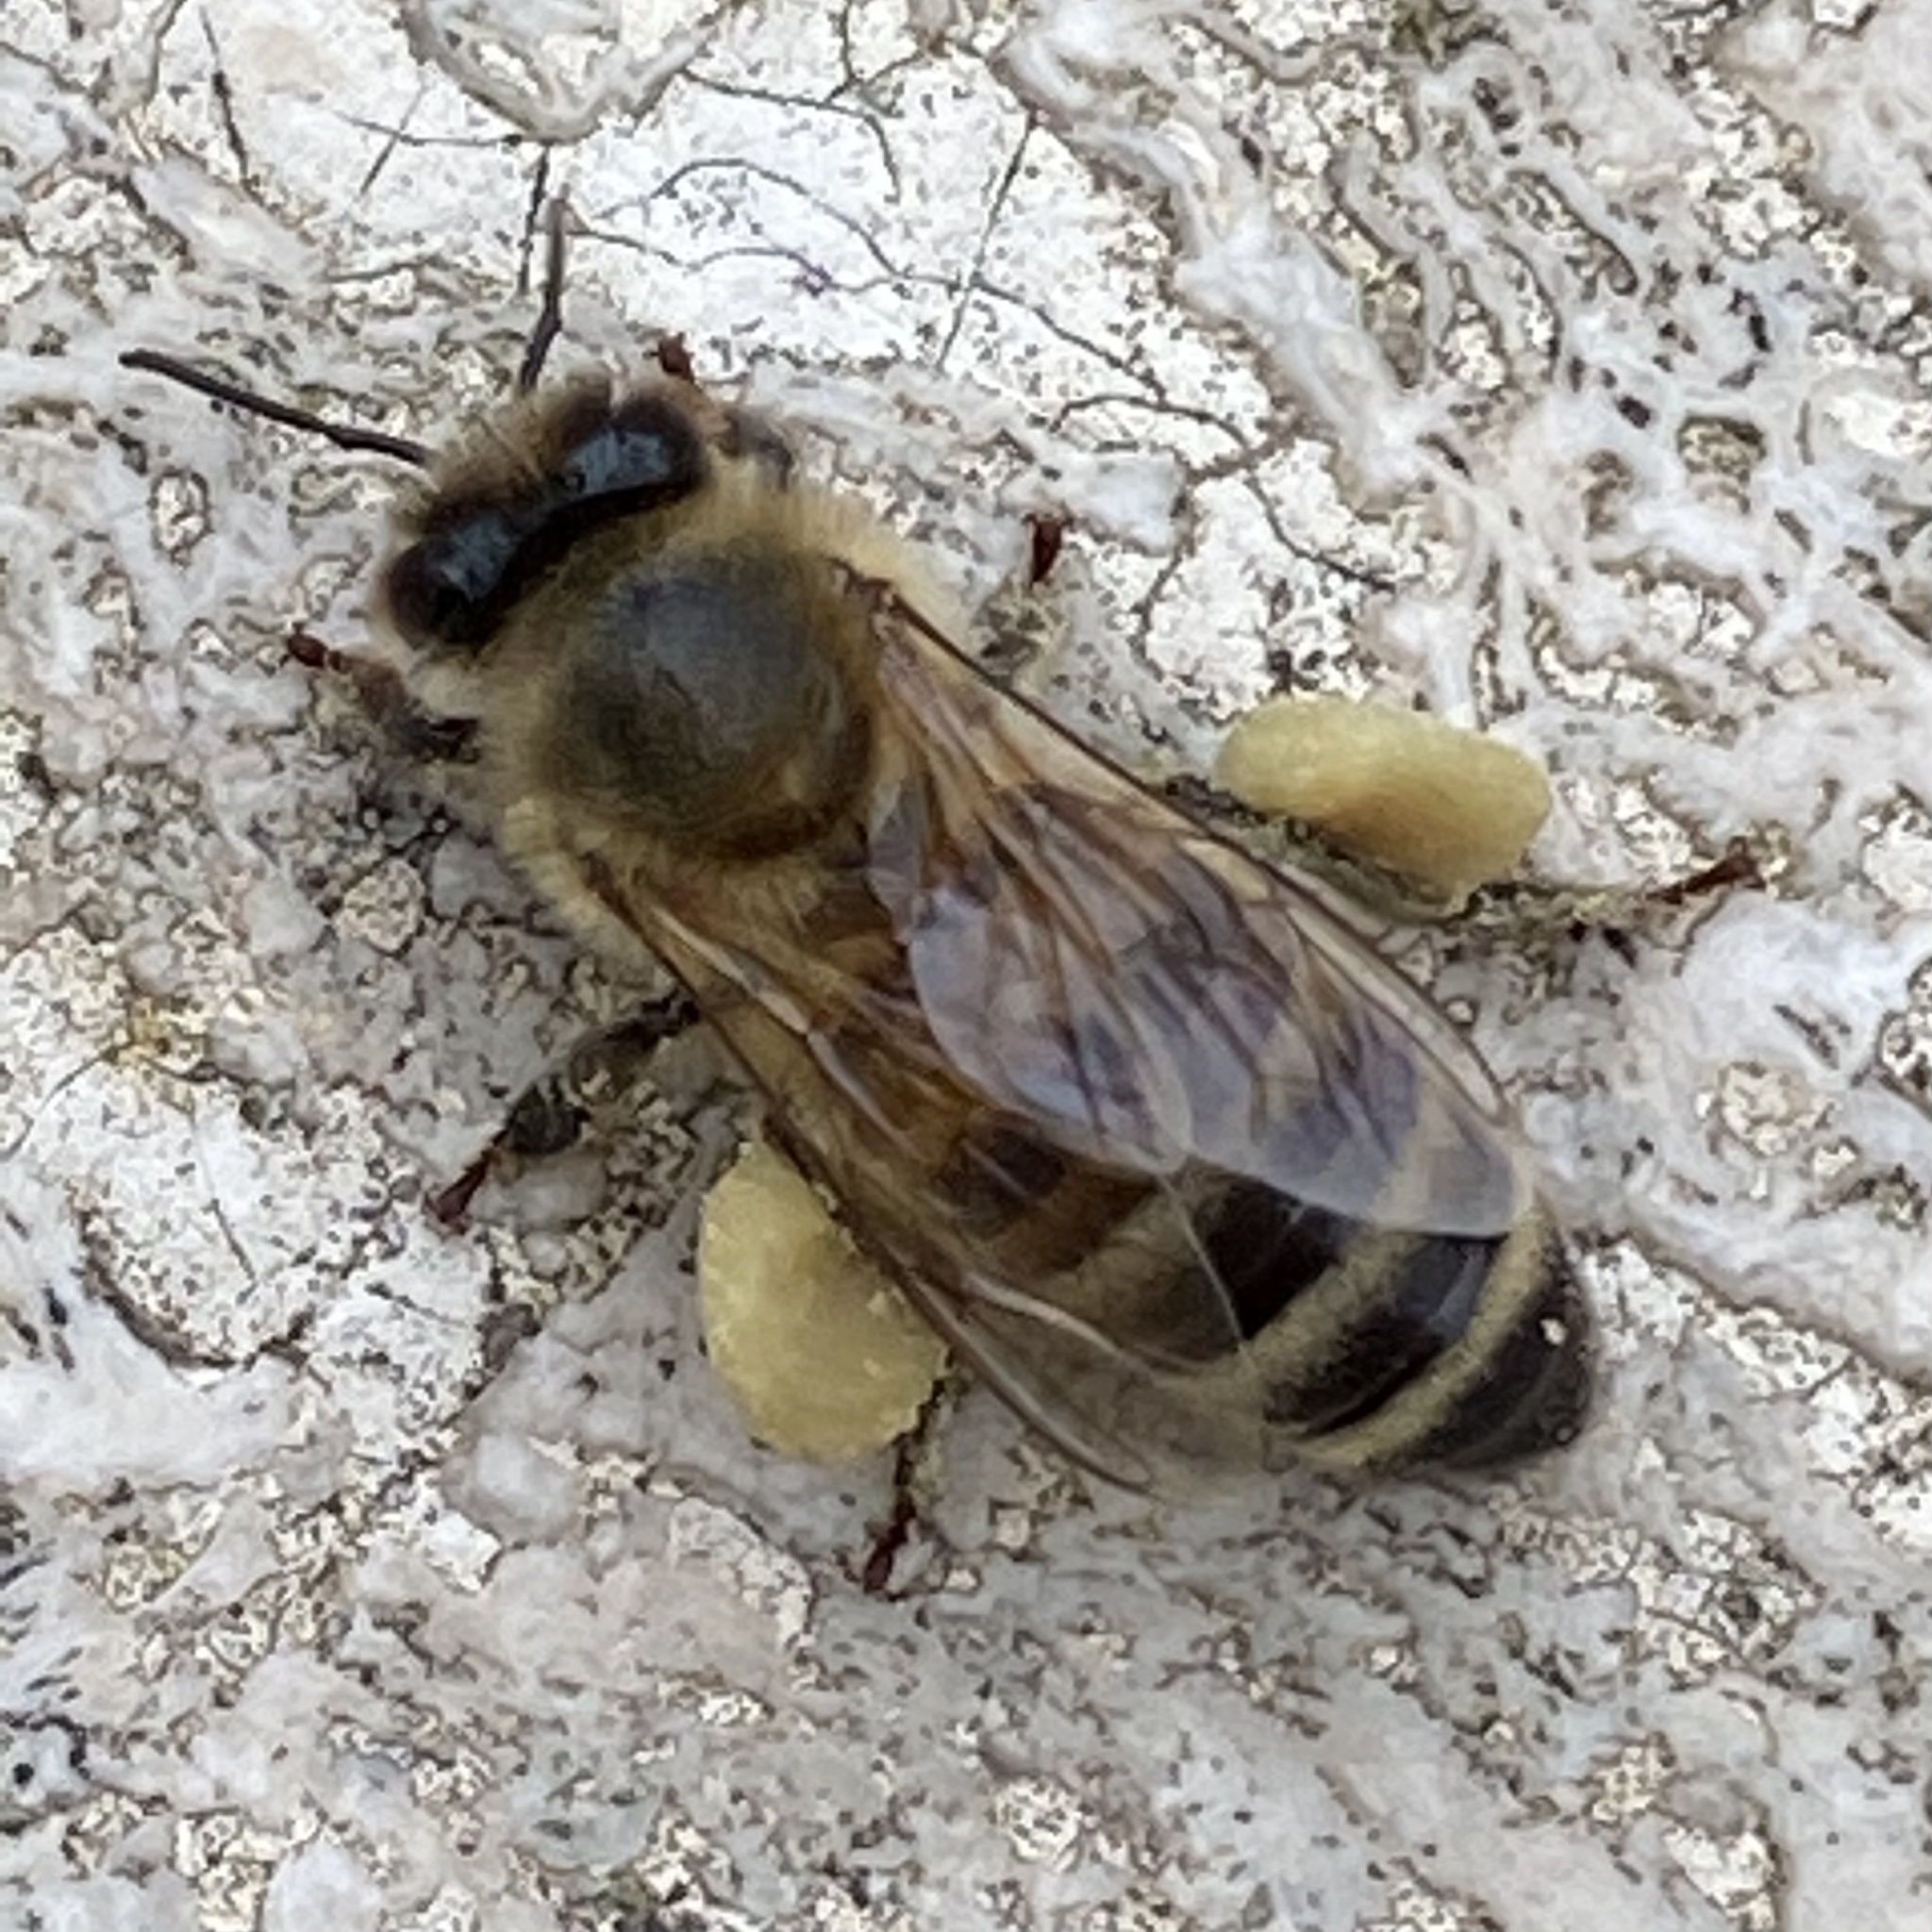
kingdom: Animalia
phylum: Arthropoda
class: Insecta
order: Hymenoptera
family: Apidae
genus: Apis
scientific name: Apis mellifera
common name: Honey bee
